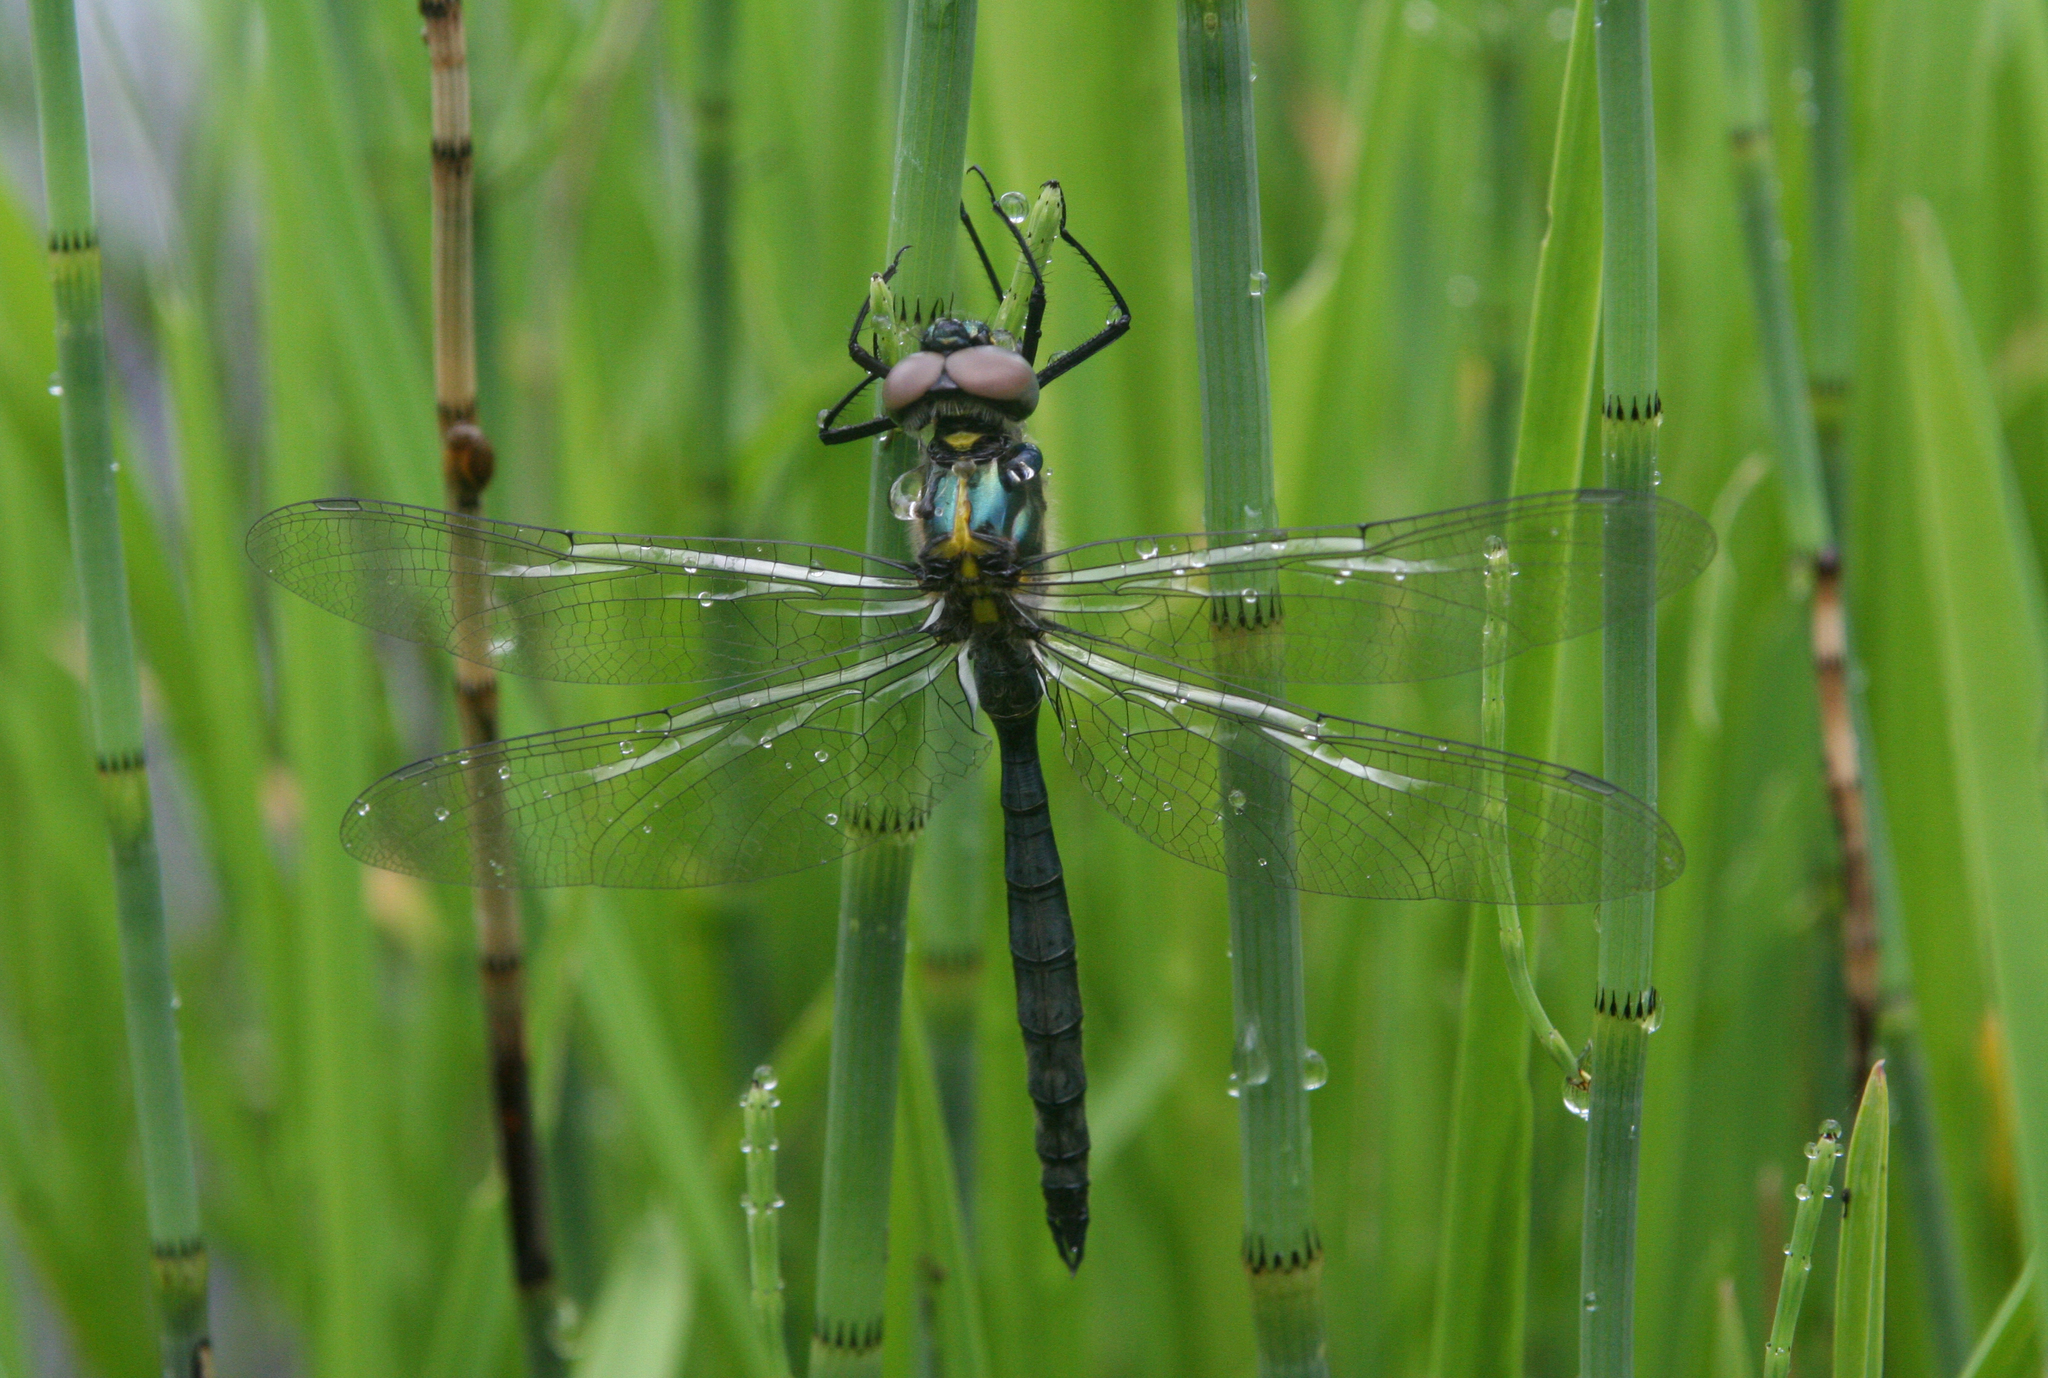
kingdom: Animalia
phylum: Arthropoda
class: Insecta
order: Odonata
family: Corduliidae
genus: Somatochlora
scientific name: Somatochlora exuberata
